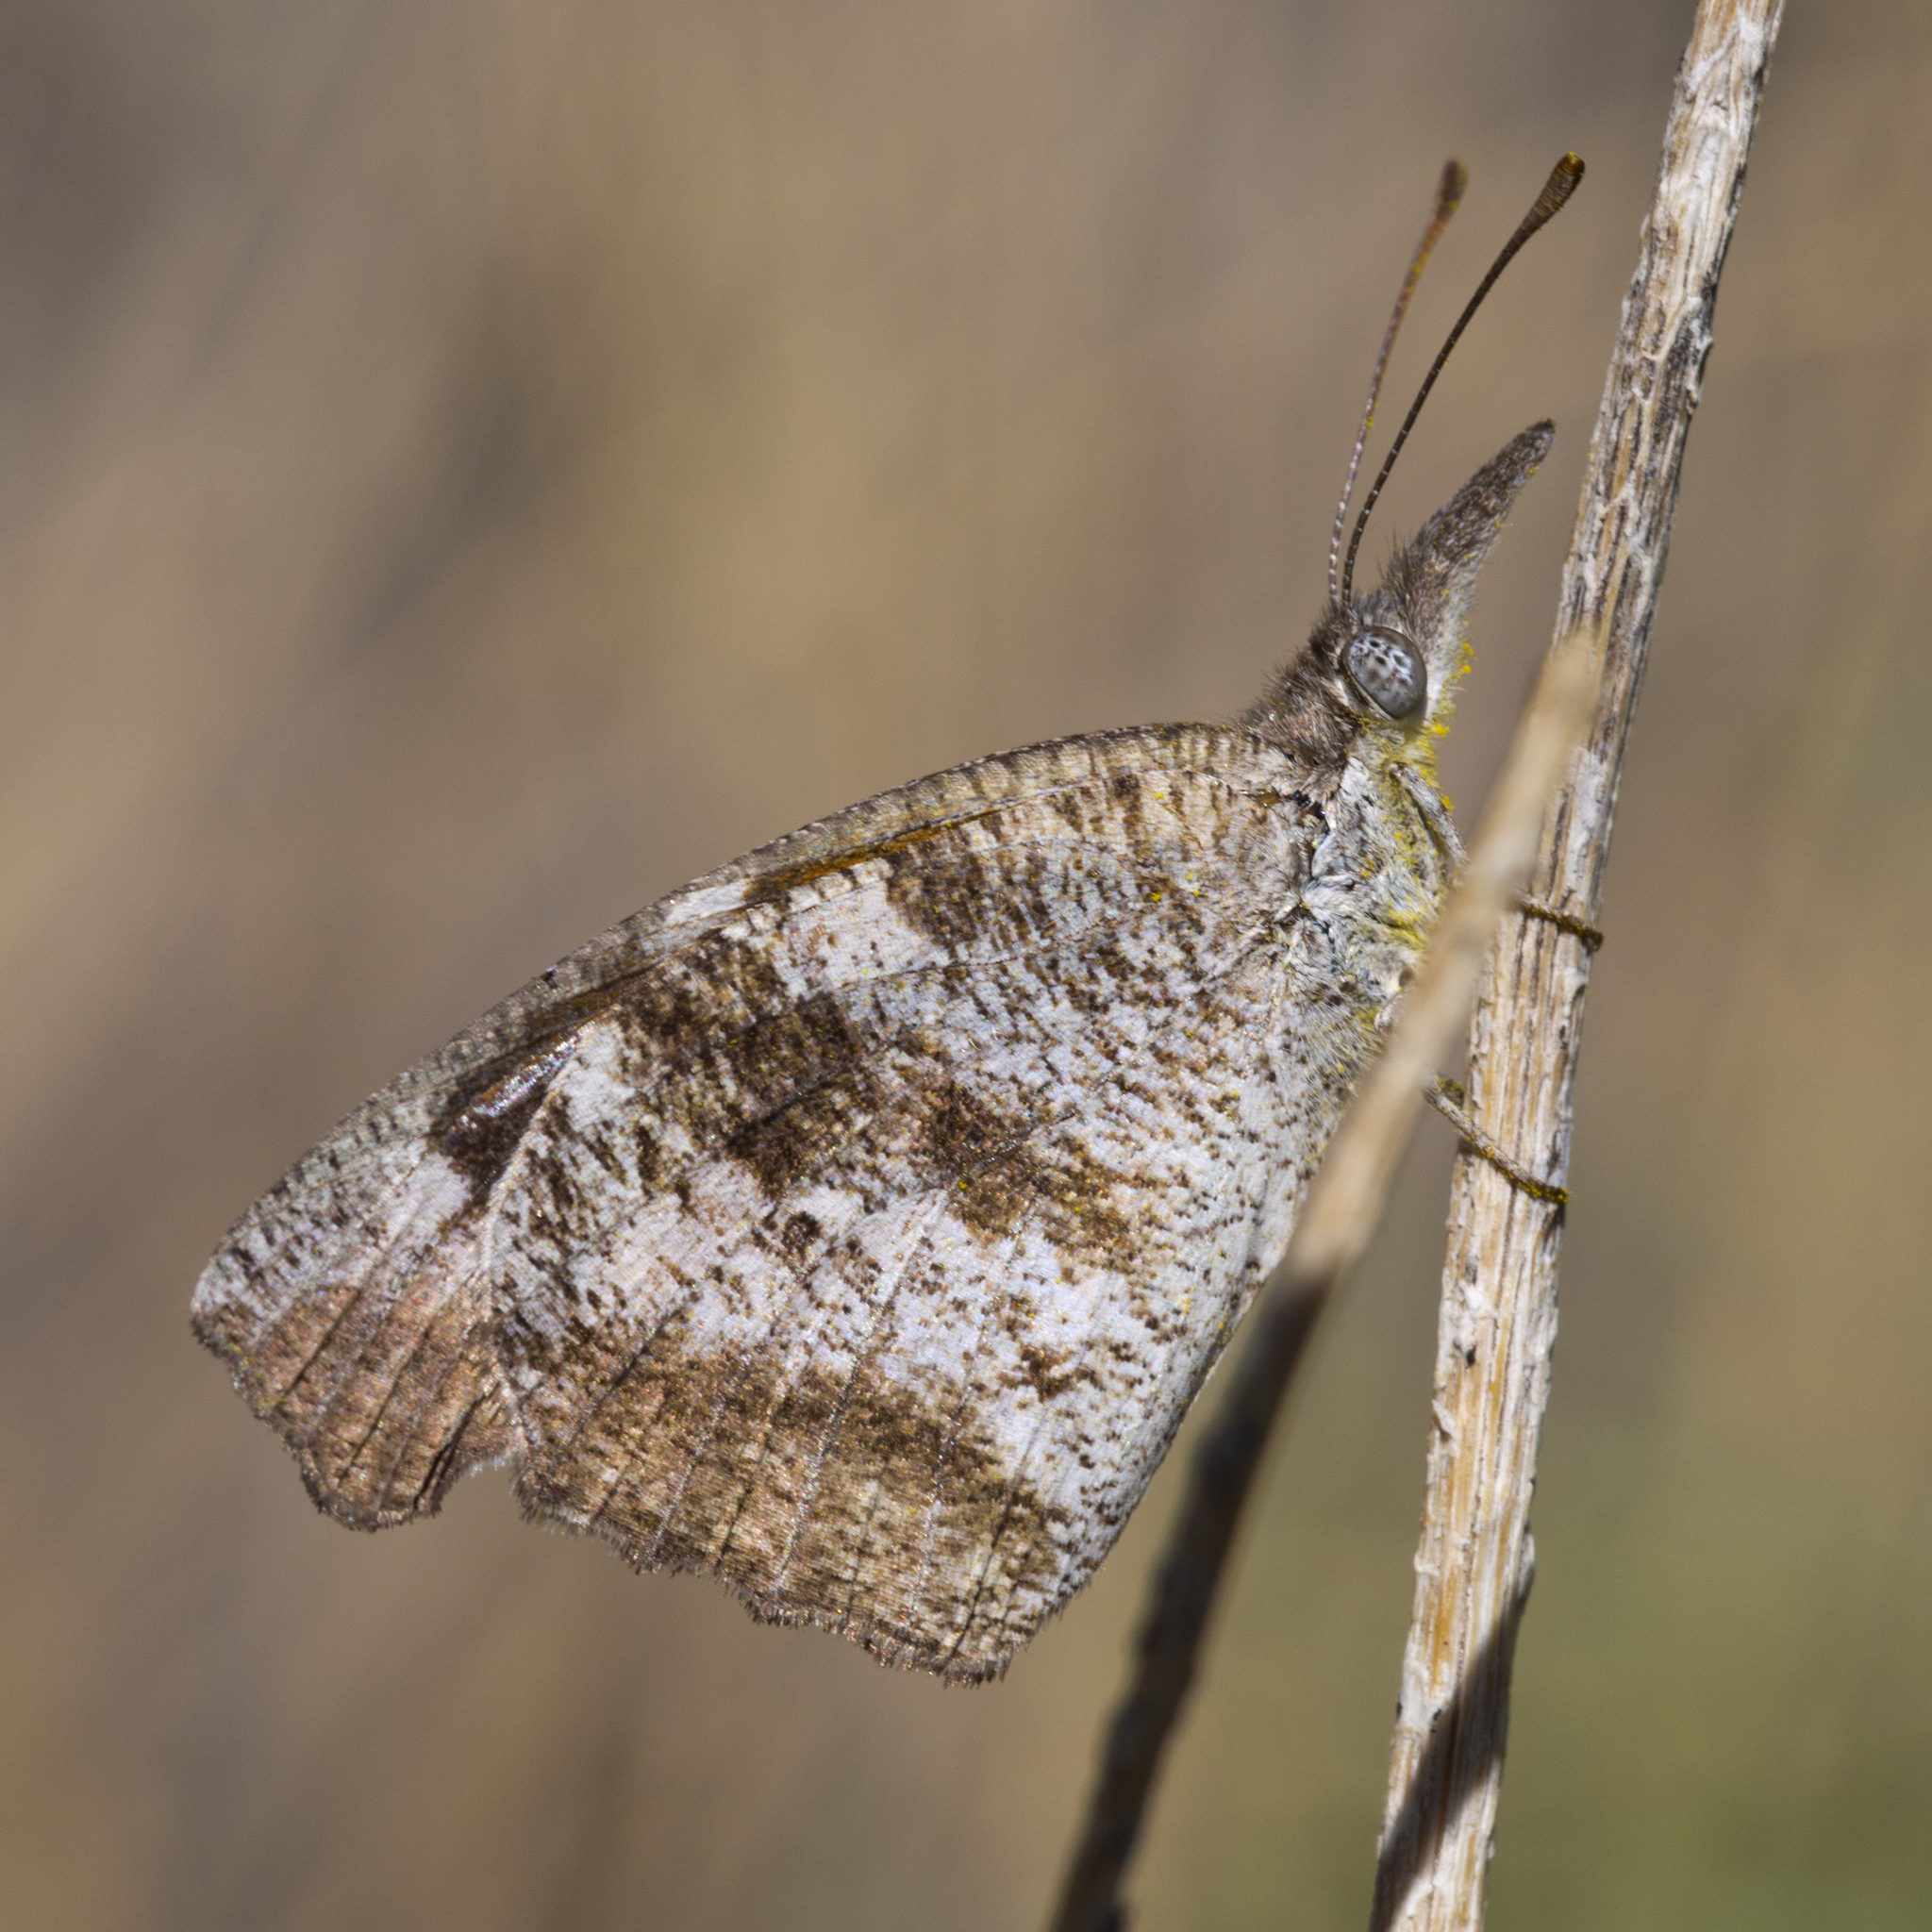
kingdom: Animalia
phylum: Arthropoda
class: Insecta
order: Lepidoptera
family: Nymphalidae
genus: Libytheana
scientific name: Libytheana carinenta
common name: American snout
